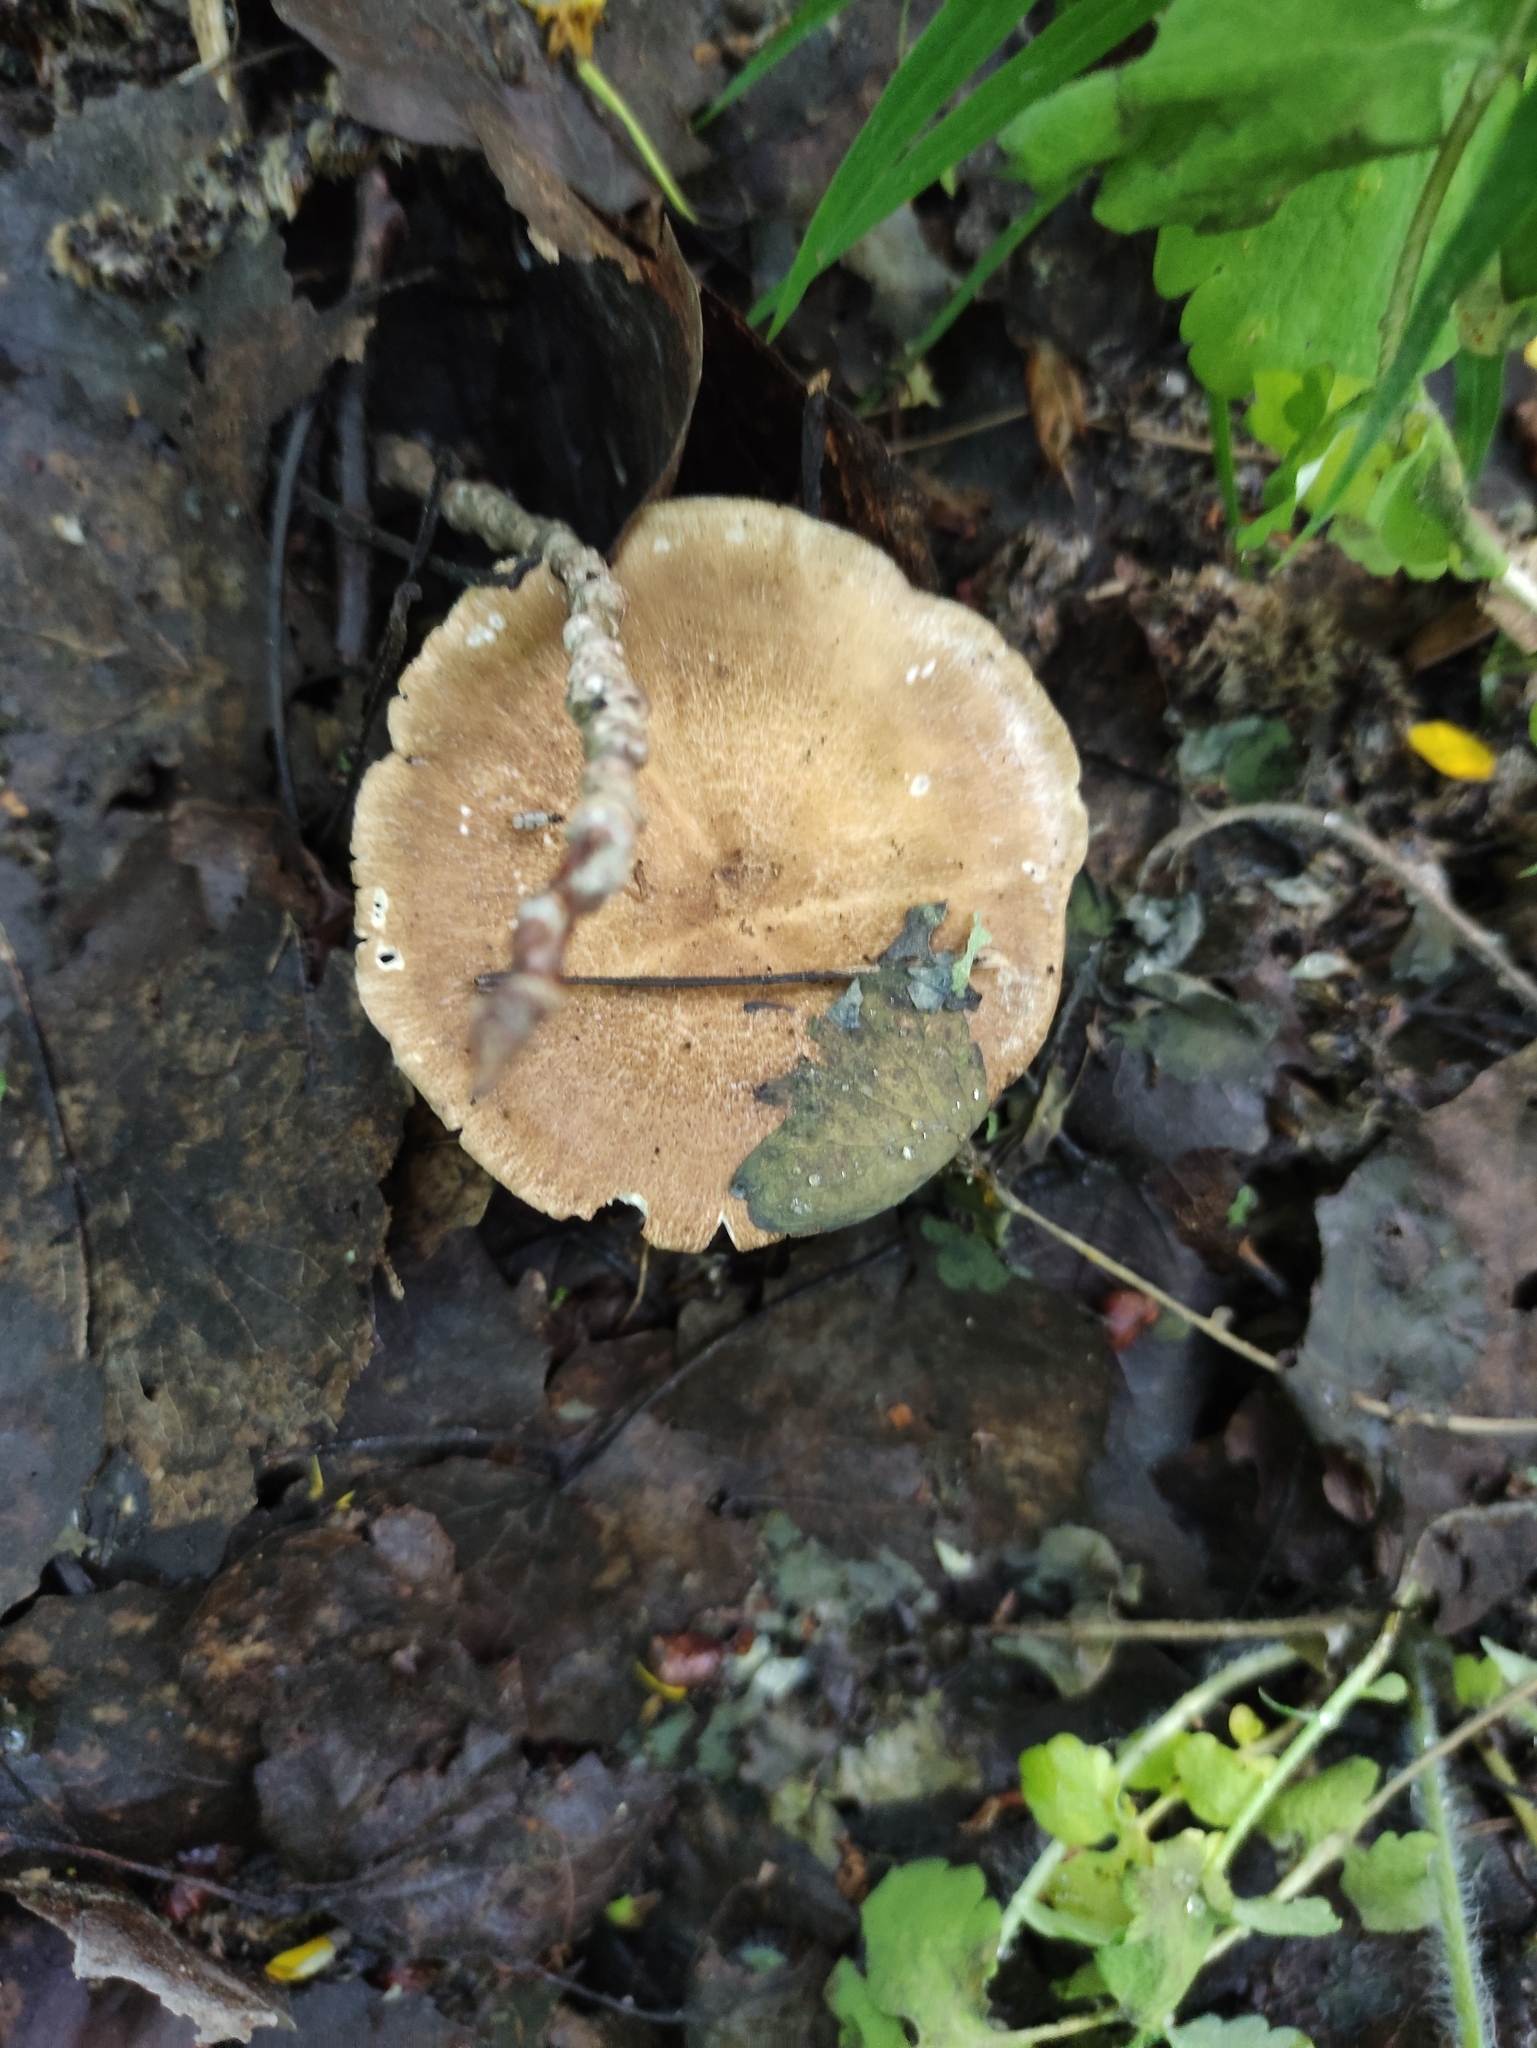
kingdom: Fungi
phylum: Basidiomycota
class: Agaricomycetes
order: Polyporales
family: Polyporaceae
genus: Lentinus
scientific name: Lentinus substrictus
